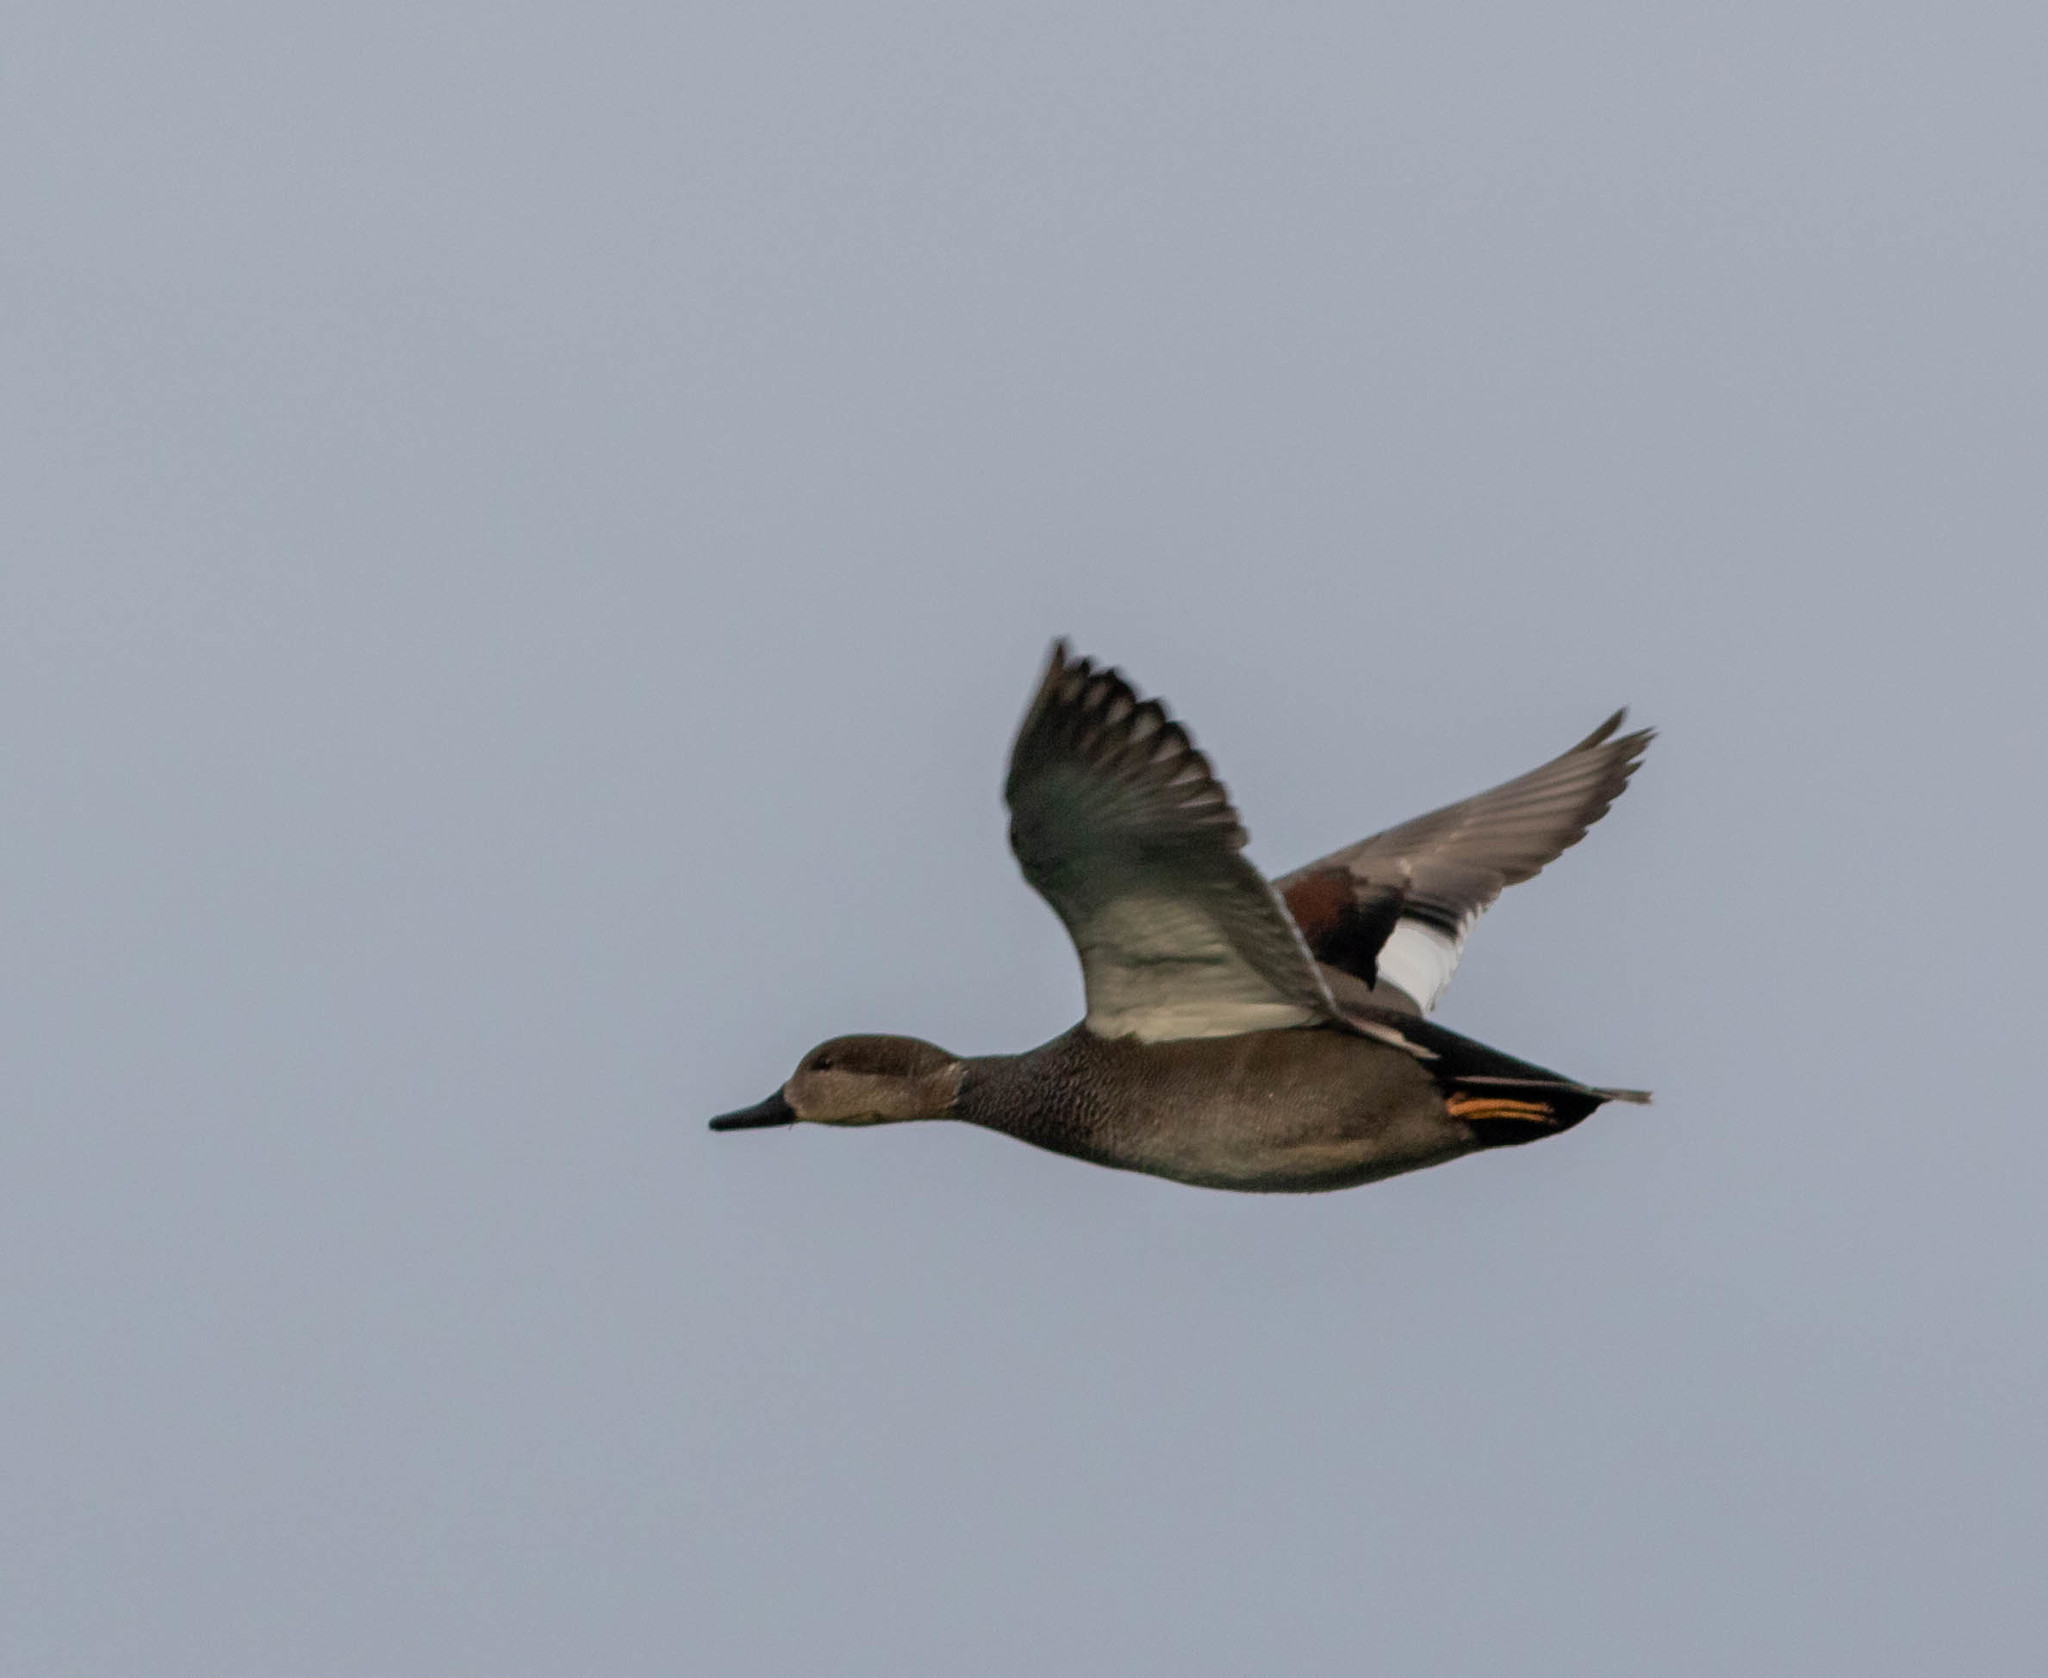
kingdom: Animalia
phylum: Chordata
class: Aves
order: Anseriformes
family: Anatidae
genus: Mareca
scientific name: Mareca strepera
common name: Gadwall
